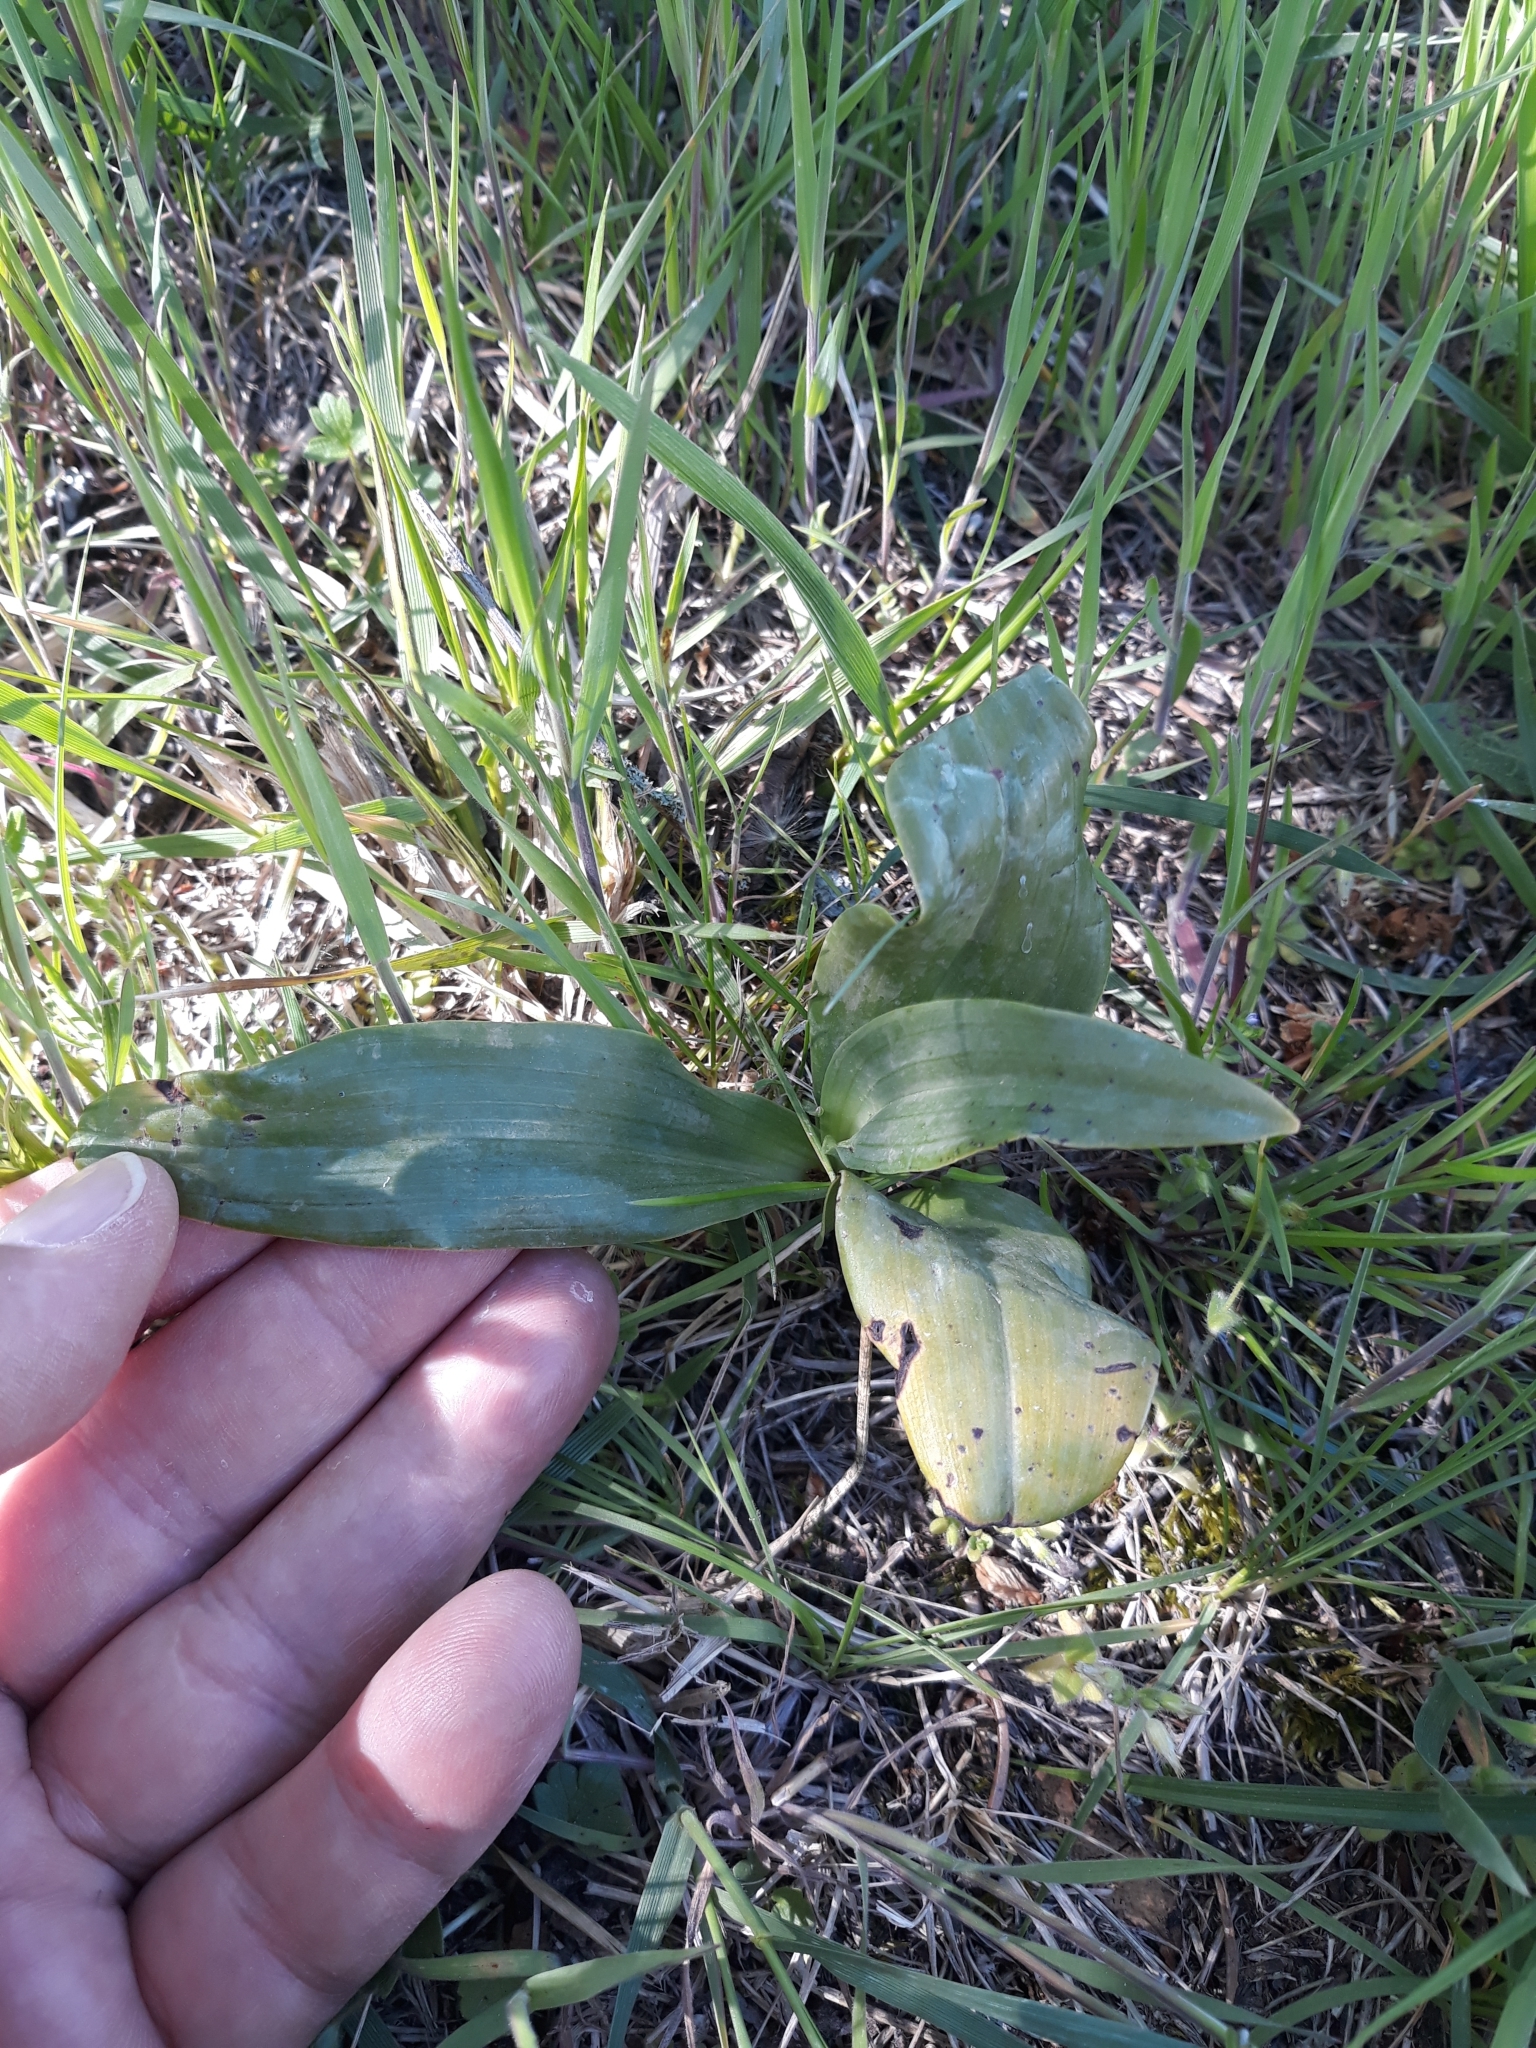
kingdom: Plantae
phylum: Tracheophyta
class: Liliopsida
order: Asparagales
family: Orchidaceae
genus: Himantoglossum
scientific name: Himantoglossum hircinum
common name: Lizard orchid
